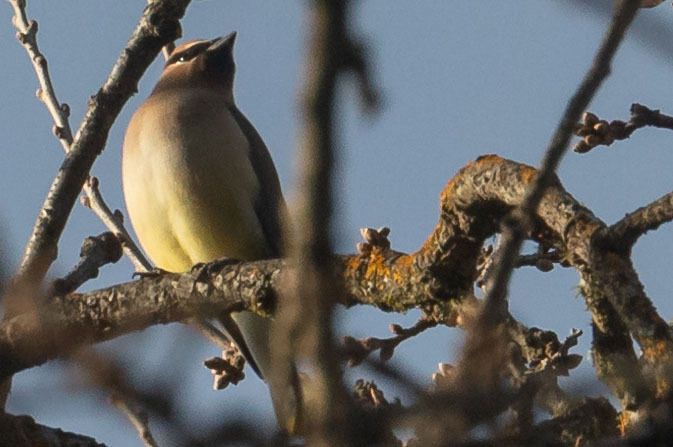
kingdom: Animalia
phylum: Chordata
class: Aves
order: Passeriformes
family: Bombycillidae
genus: Bombycilla
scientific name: Bombycilla cedrorum
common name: Cedar waxwing
